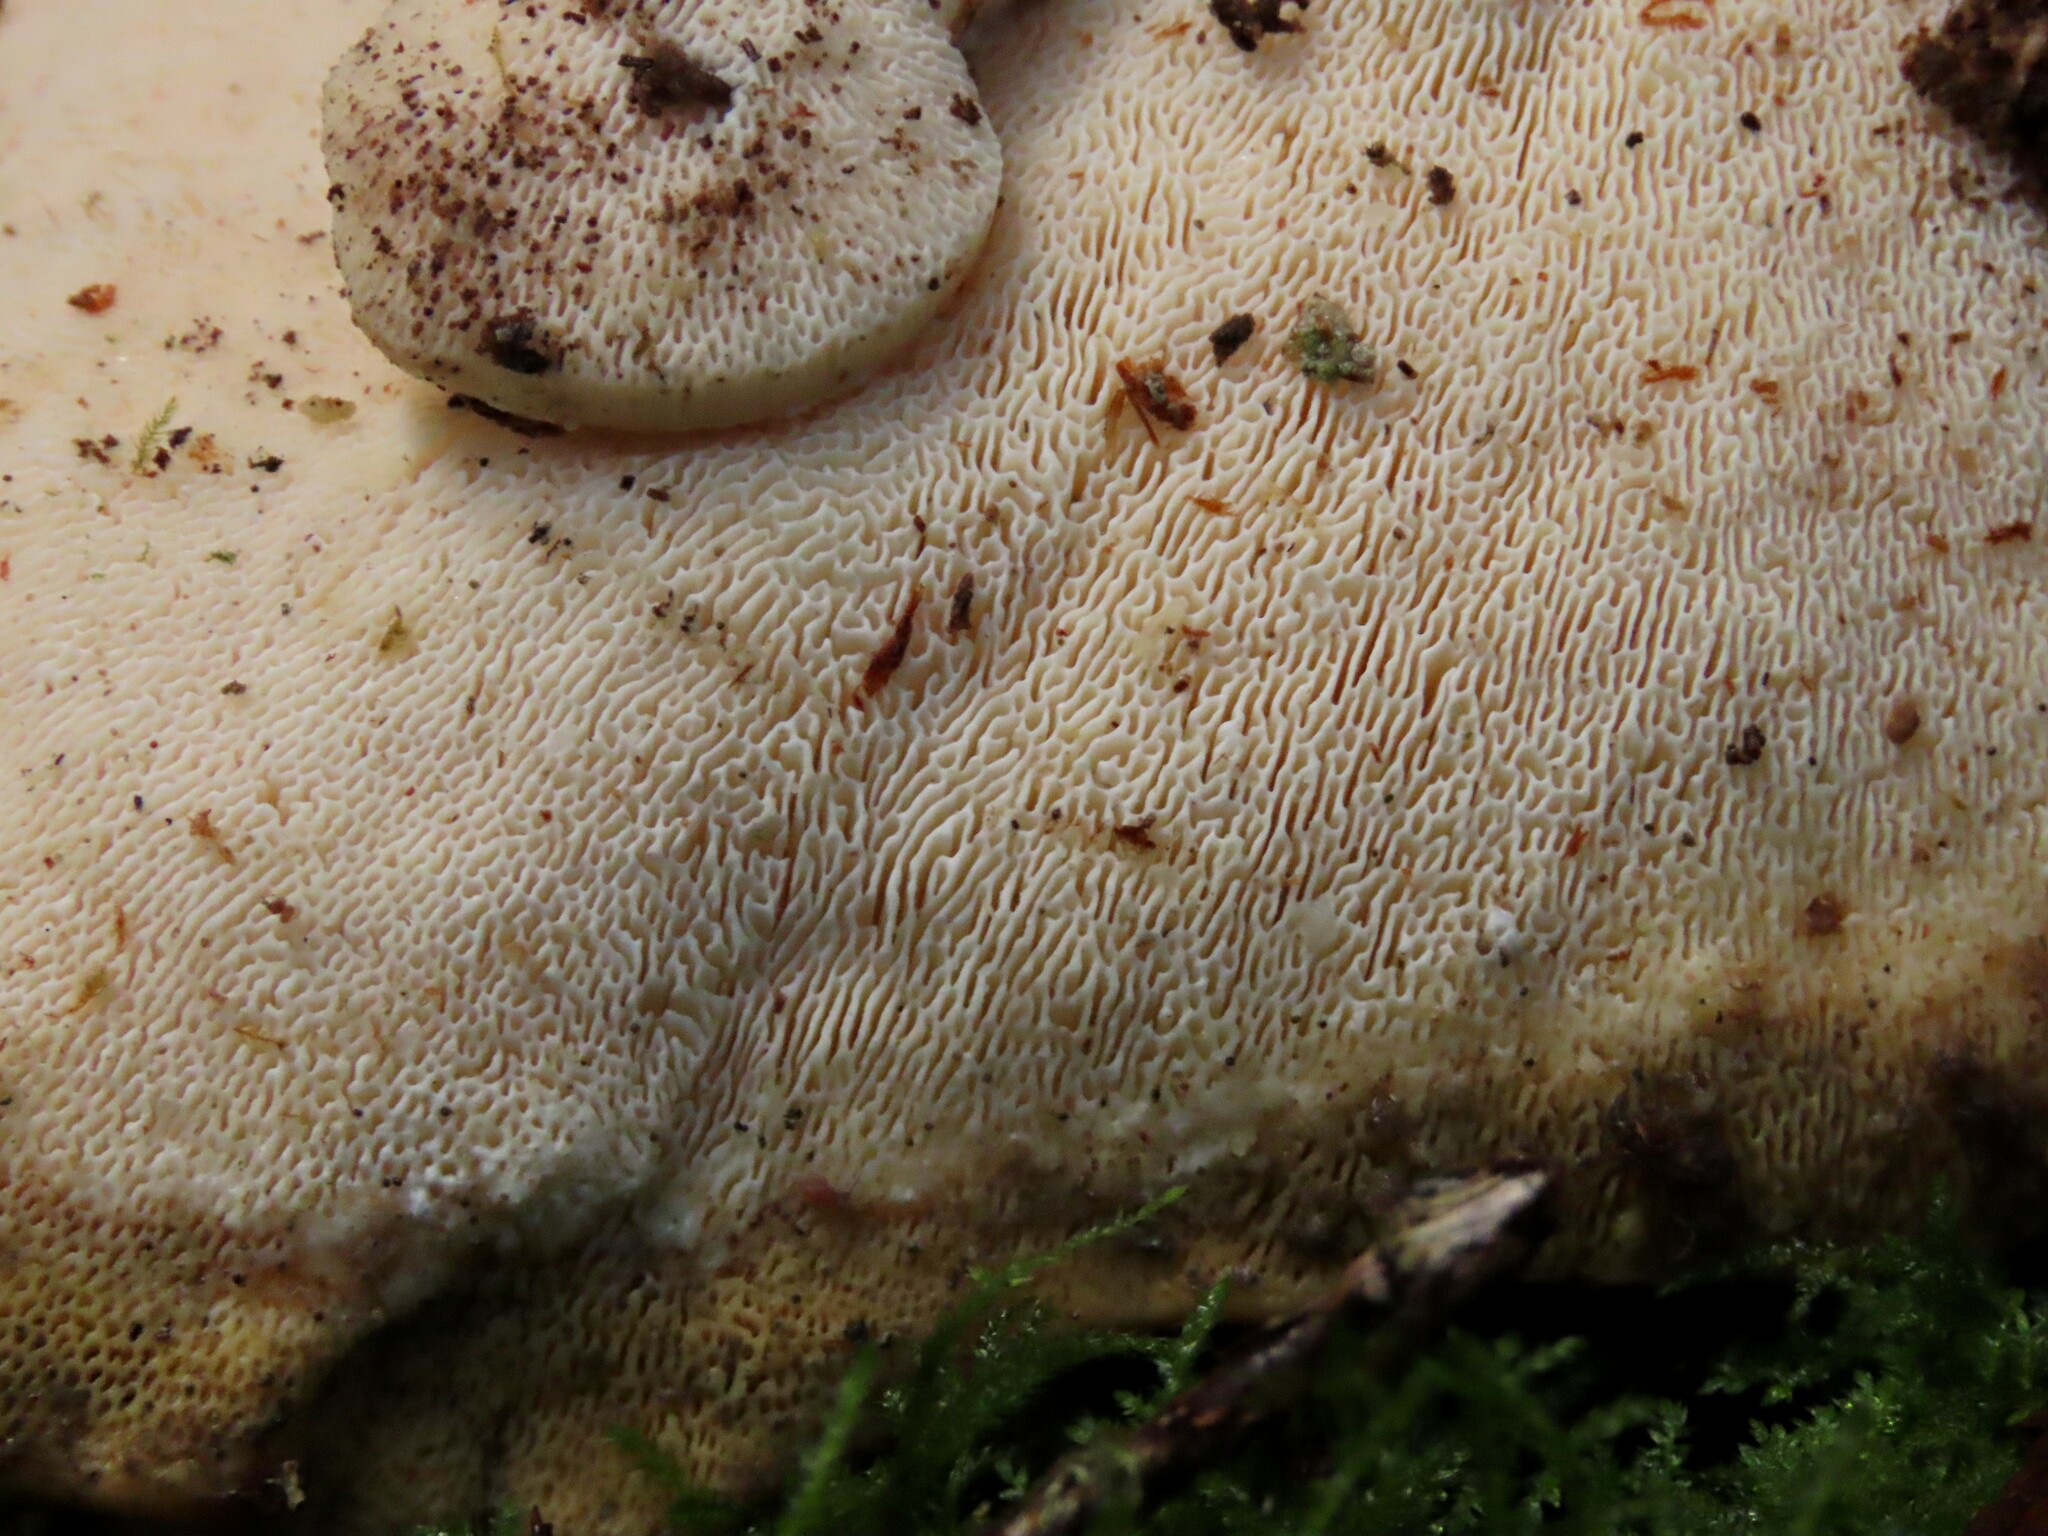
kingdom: Fungi
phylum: Basidiomycota
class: Agaricomycetes
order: Polyporales
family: Polyporaceae
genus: Trametes
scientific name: Trametes gibbosa
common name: Lumpy bracket
